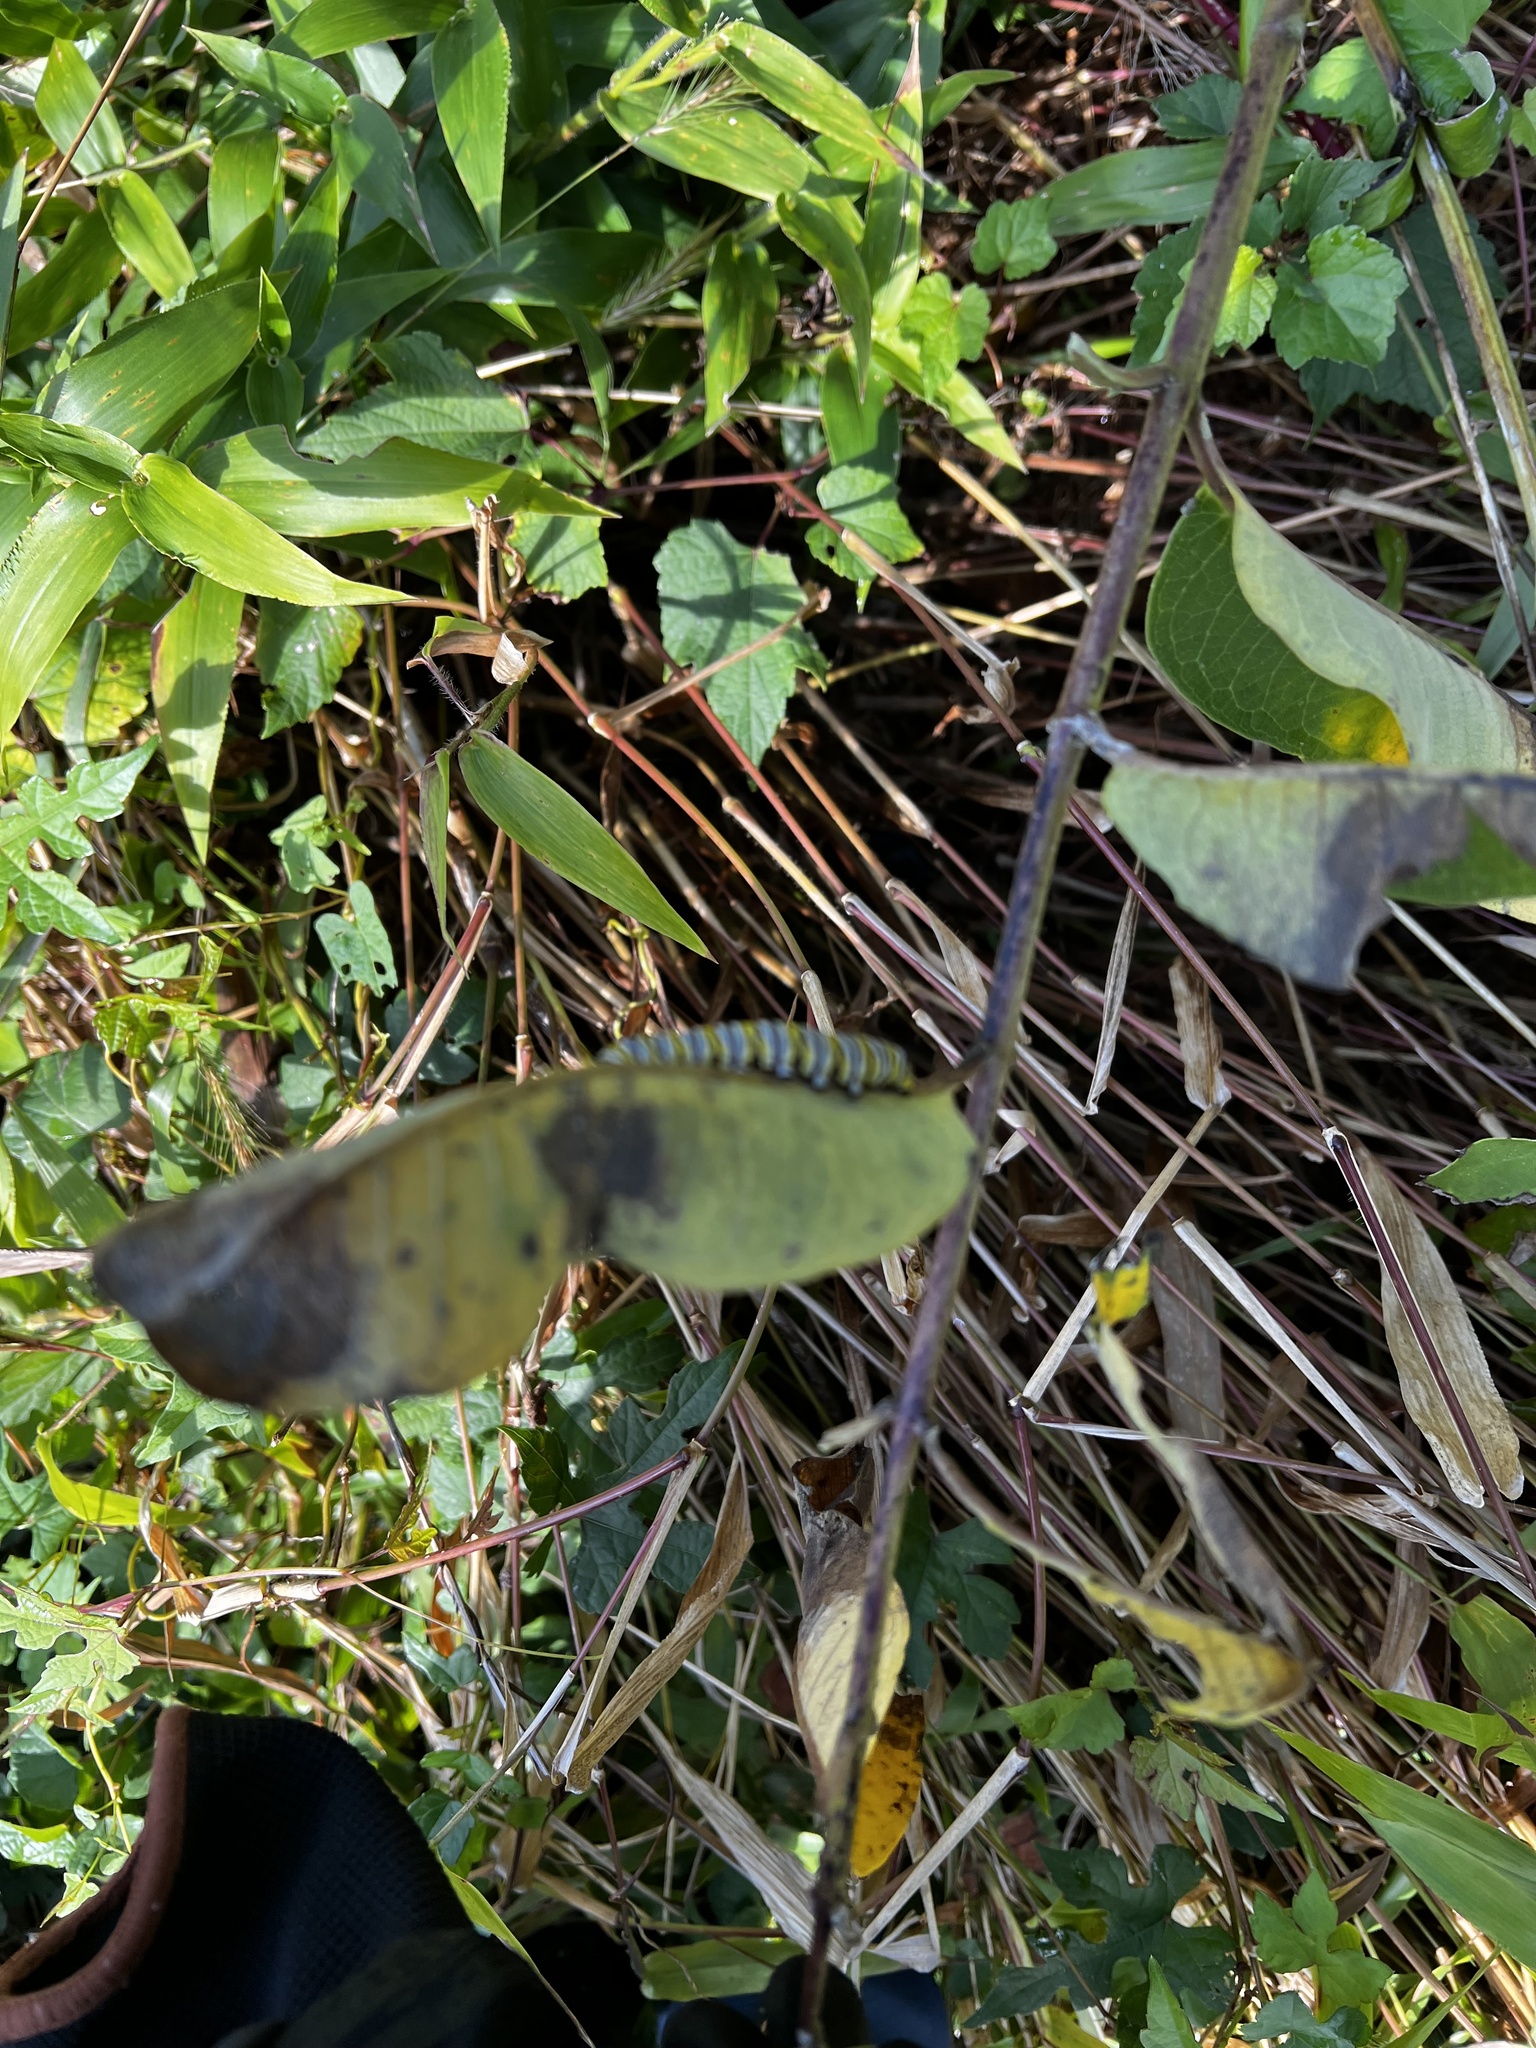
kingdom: Animalia
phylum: Arthropoda
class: Insecta
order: Lepidoptera
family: Nymphalidae
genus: Danaus
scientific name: Danaus plexippus
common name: Monarch
